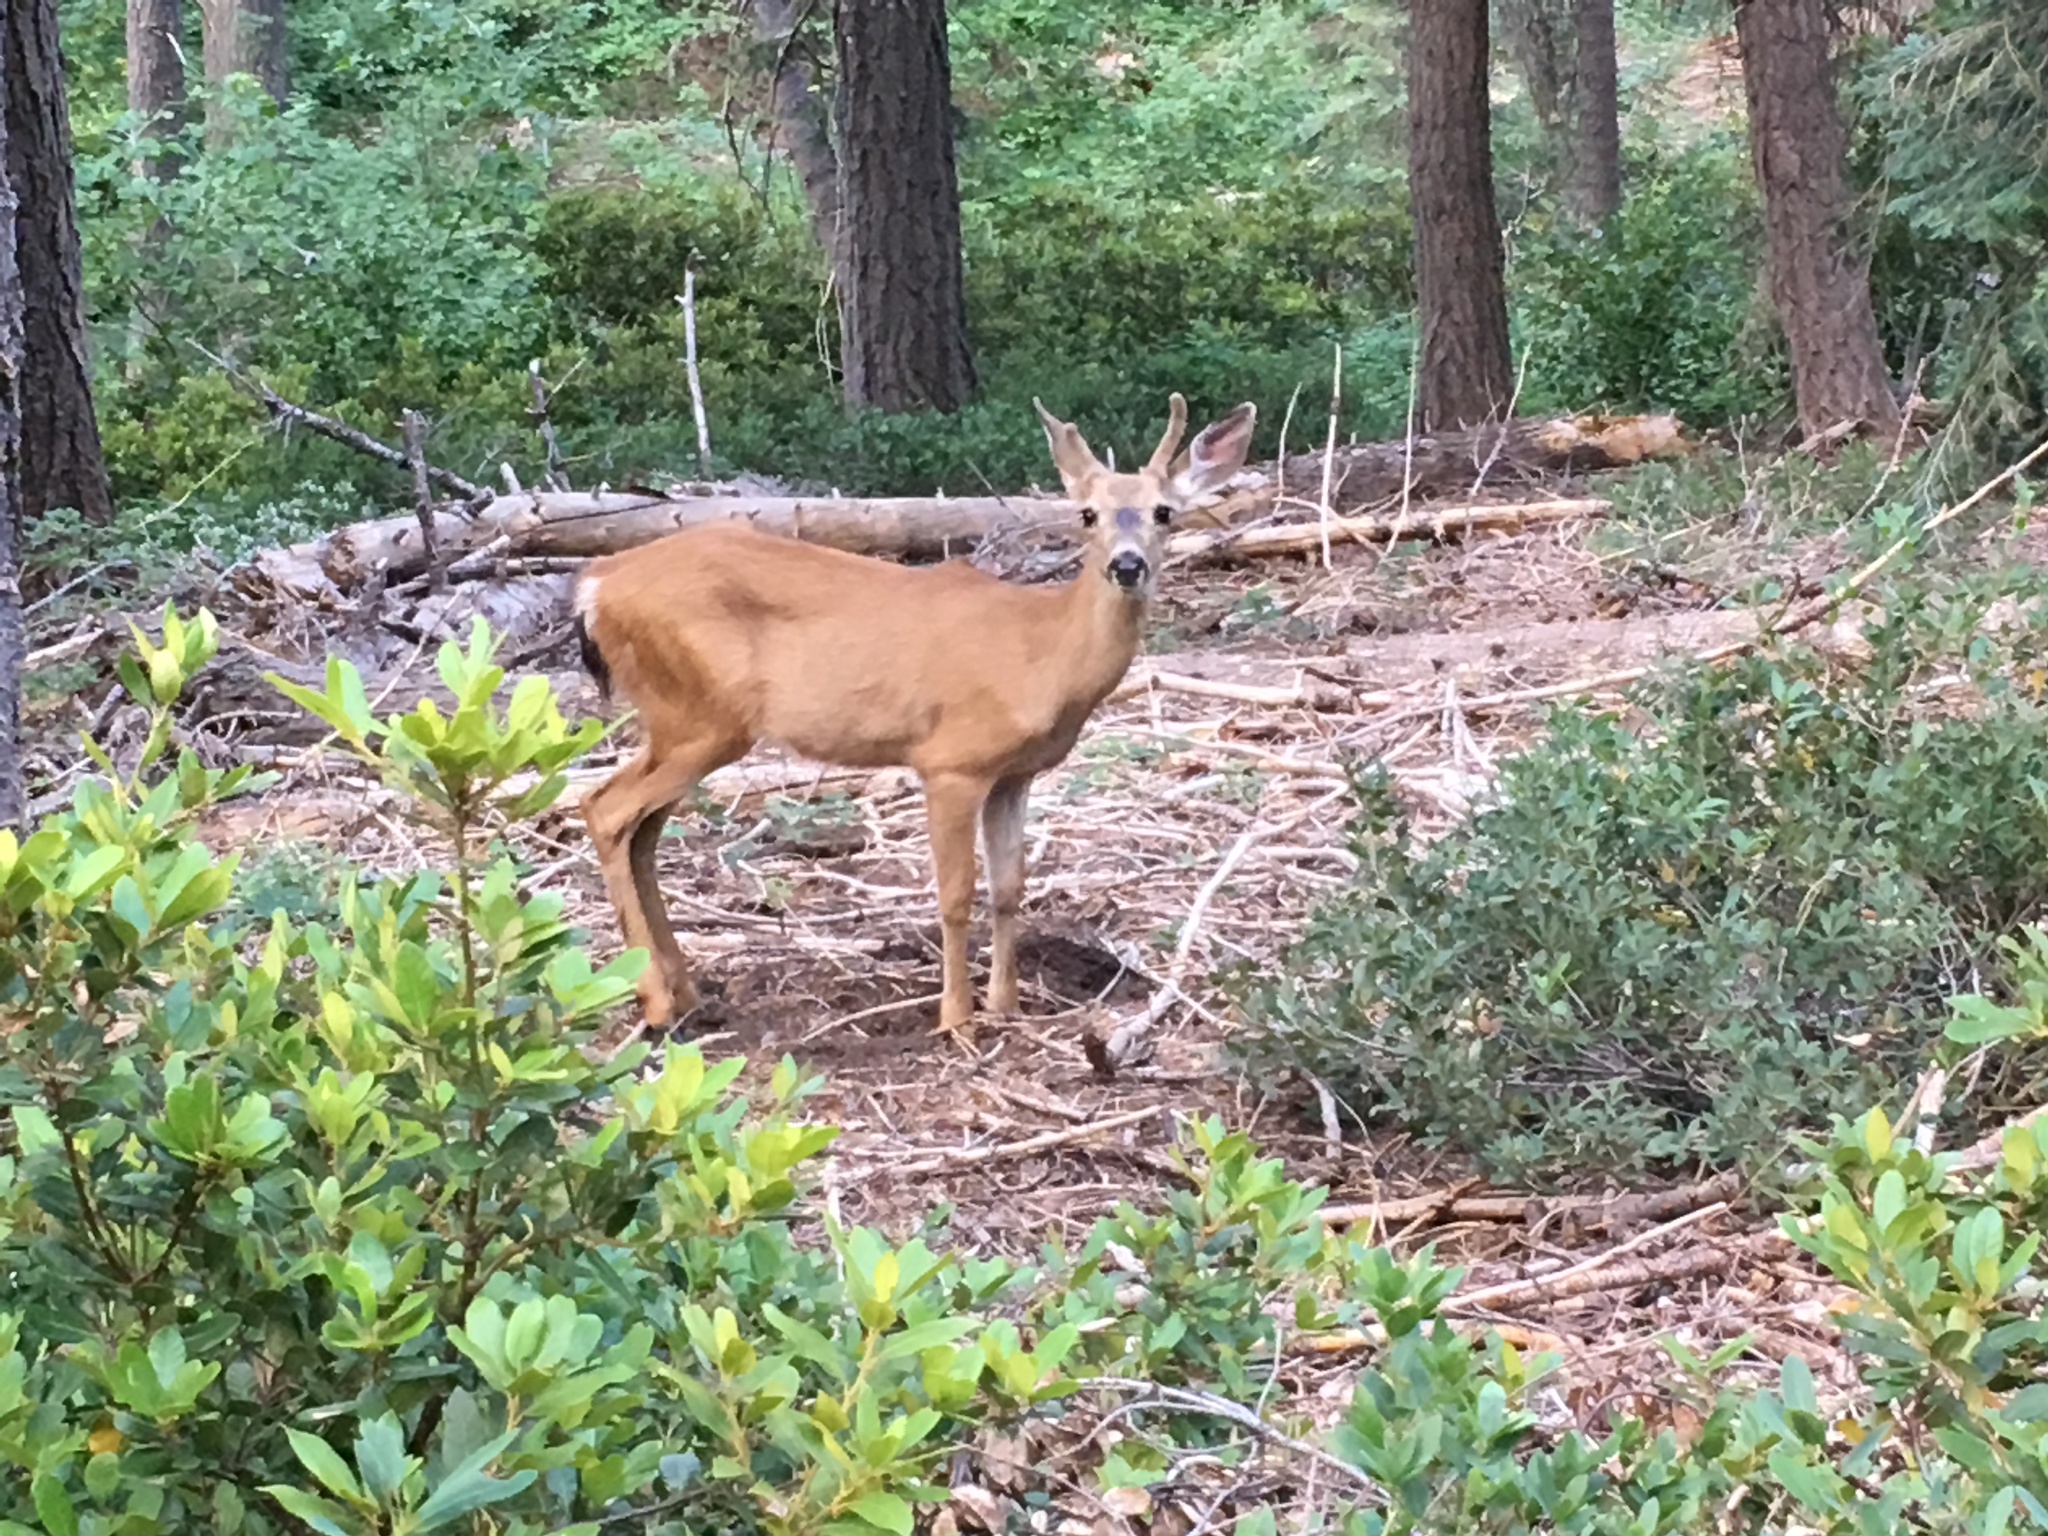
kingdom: Animalia
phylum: Chordata
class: Mammalia
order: Artiodactyla
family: Cervidae
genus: Odocoileus
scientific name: Odocoileus hemionus
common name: Mule deer
